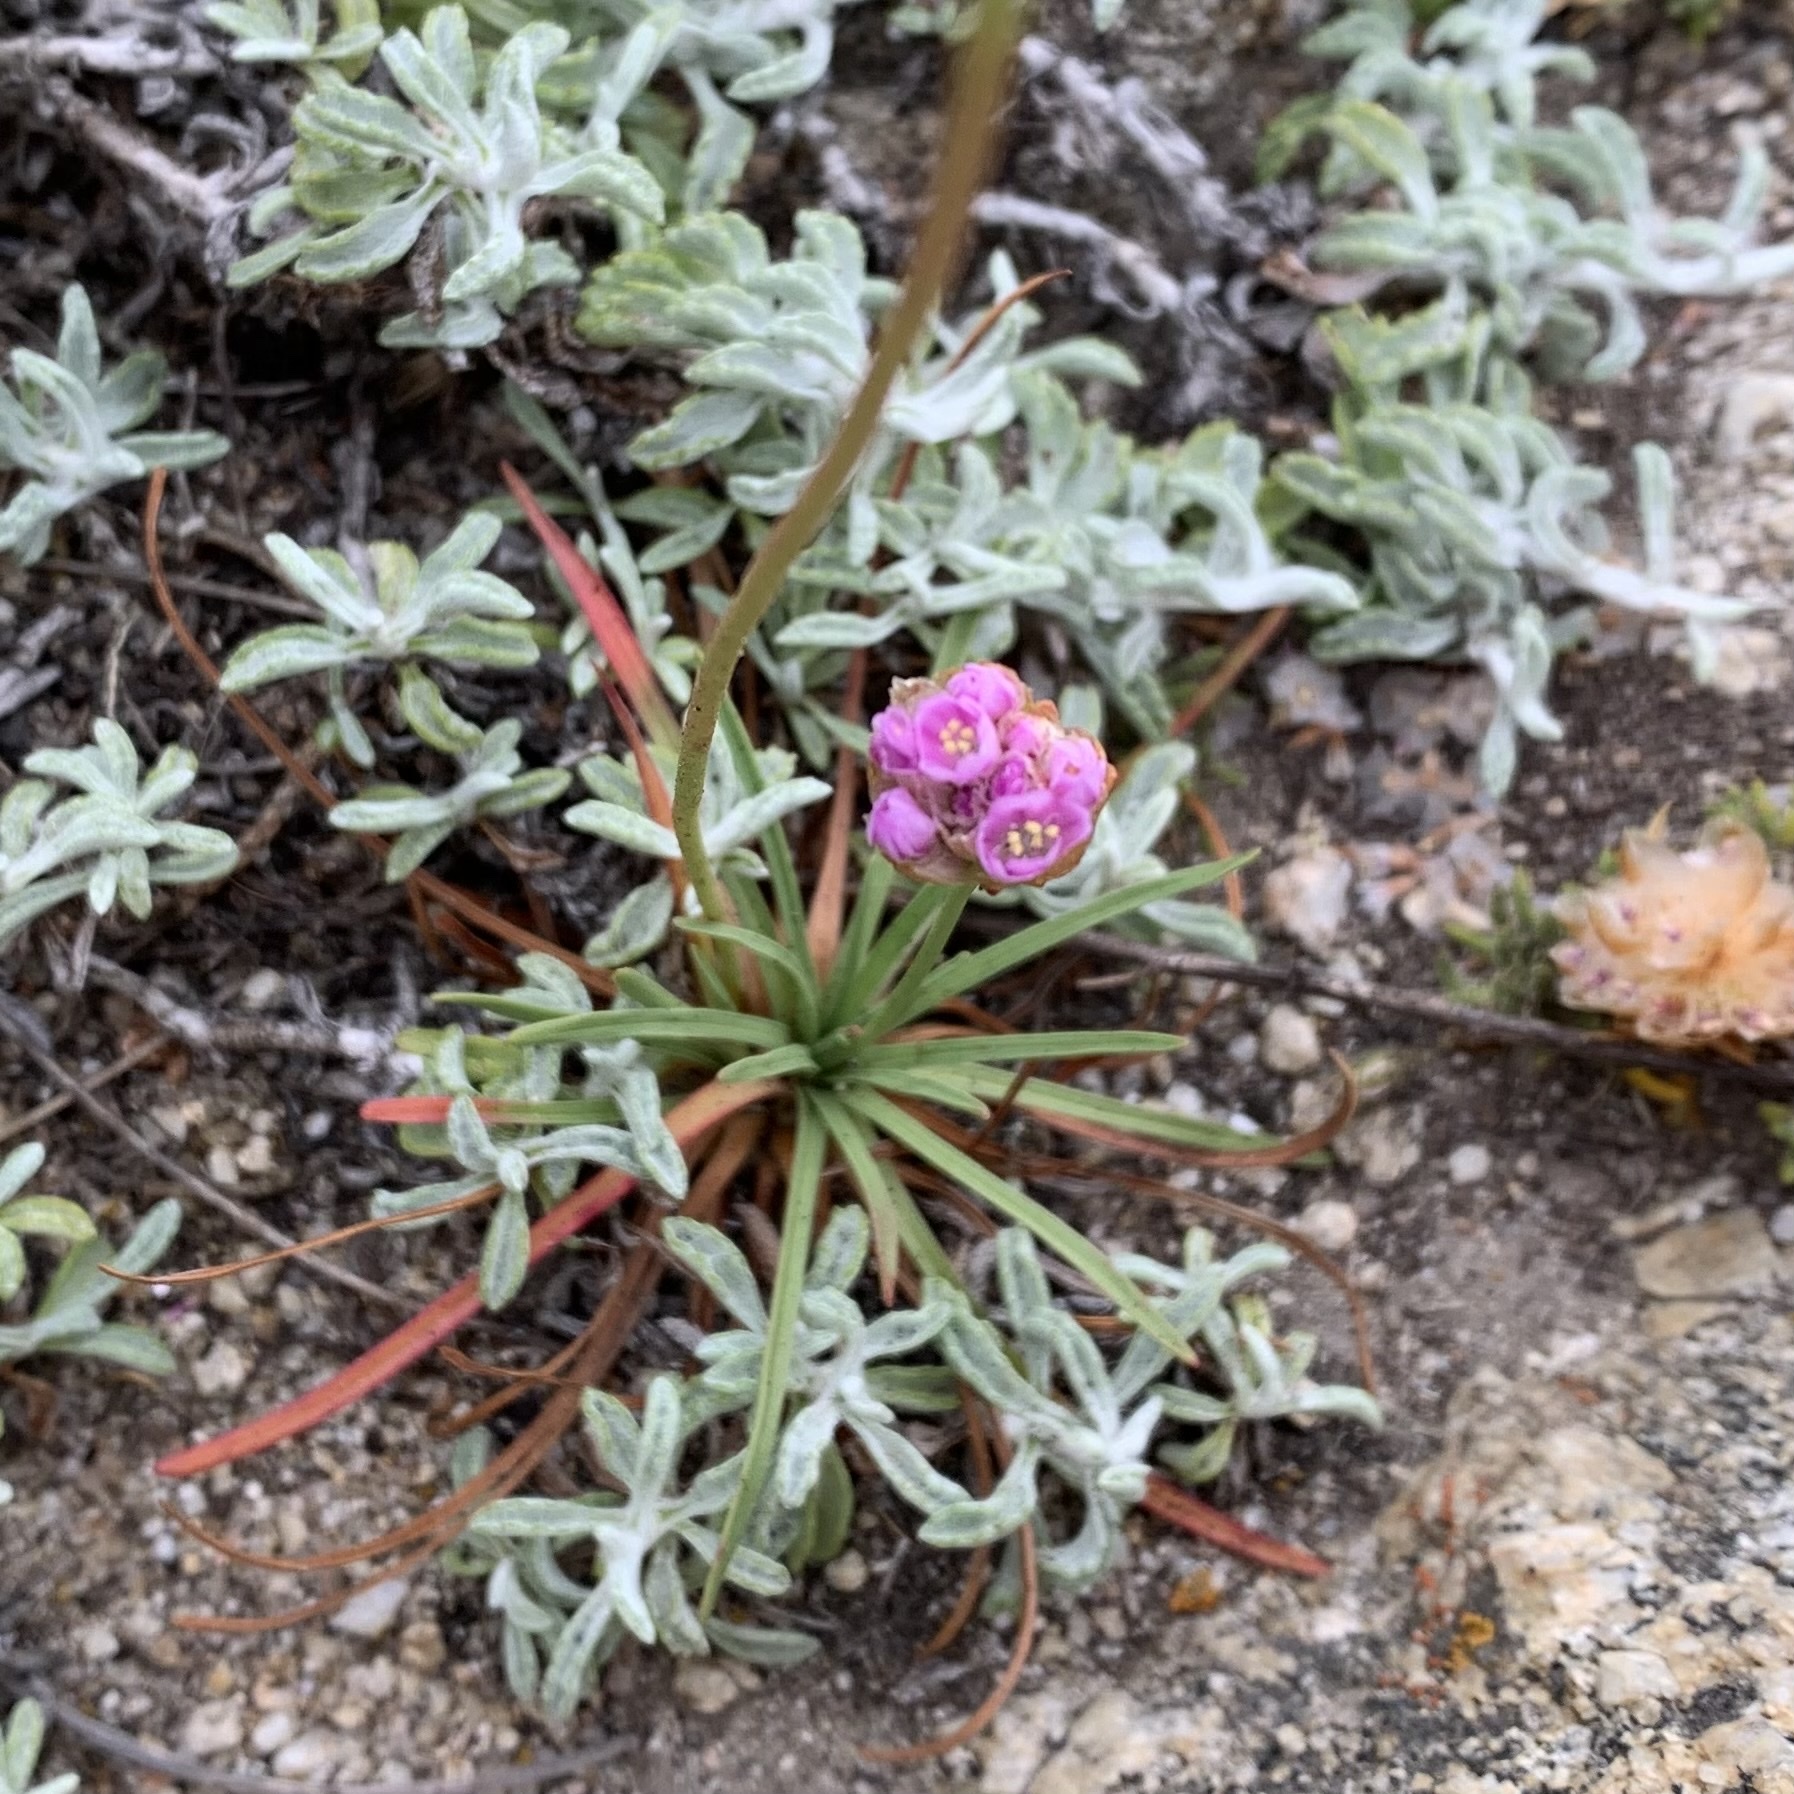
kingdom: Plantae
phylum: Tracheophyta
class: Magnoliopsida
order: Caryophyllales
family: Plumbaginaceae
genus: Armeria
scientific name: Armeria maritima
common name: Thrift
